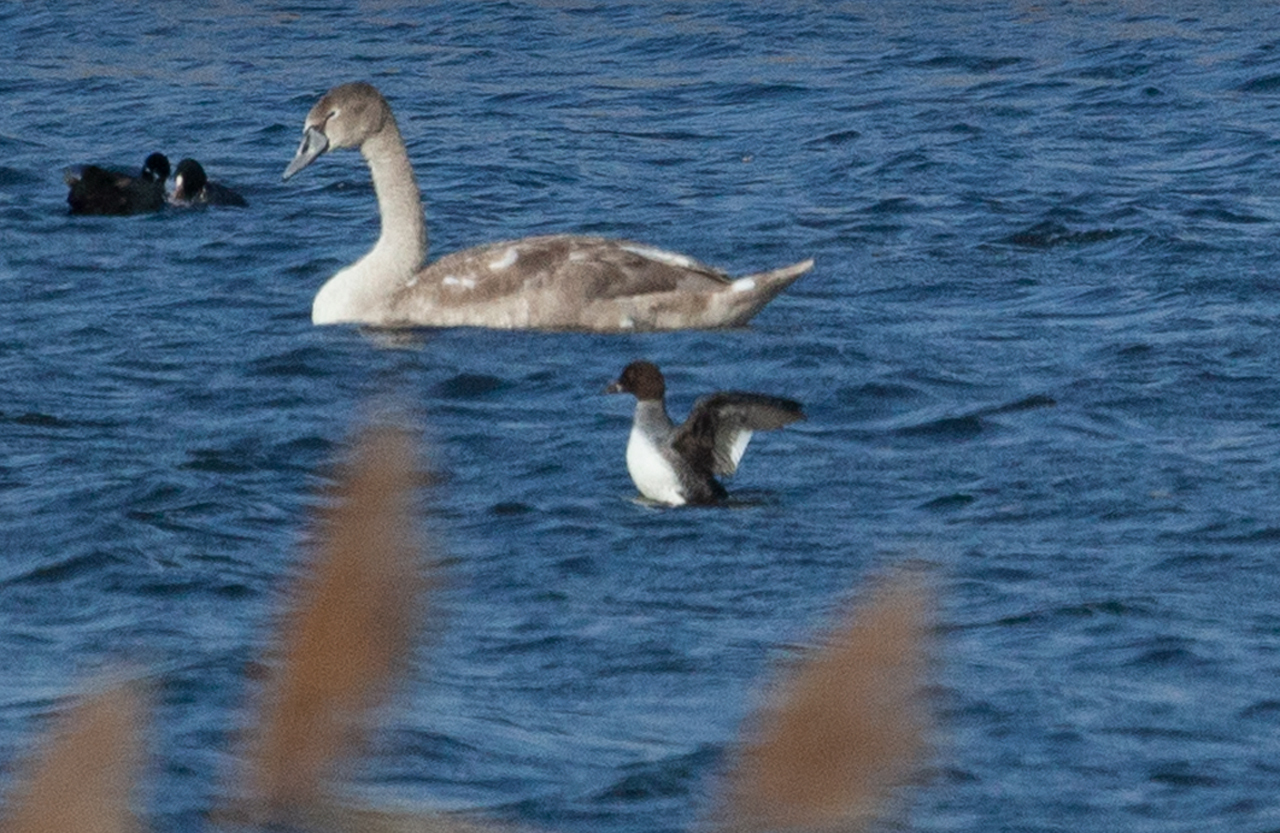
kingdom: Animalia
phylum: Chordata
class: Aves
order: Anseriformes
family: Anatidae
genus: Bucephala
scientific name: Bucephala clangula
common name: Common goldeneye
